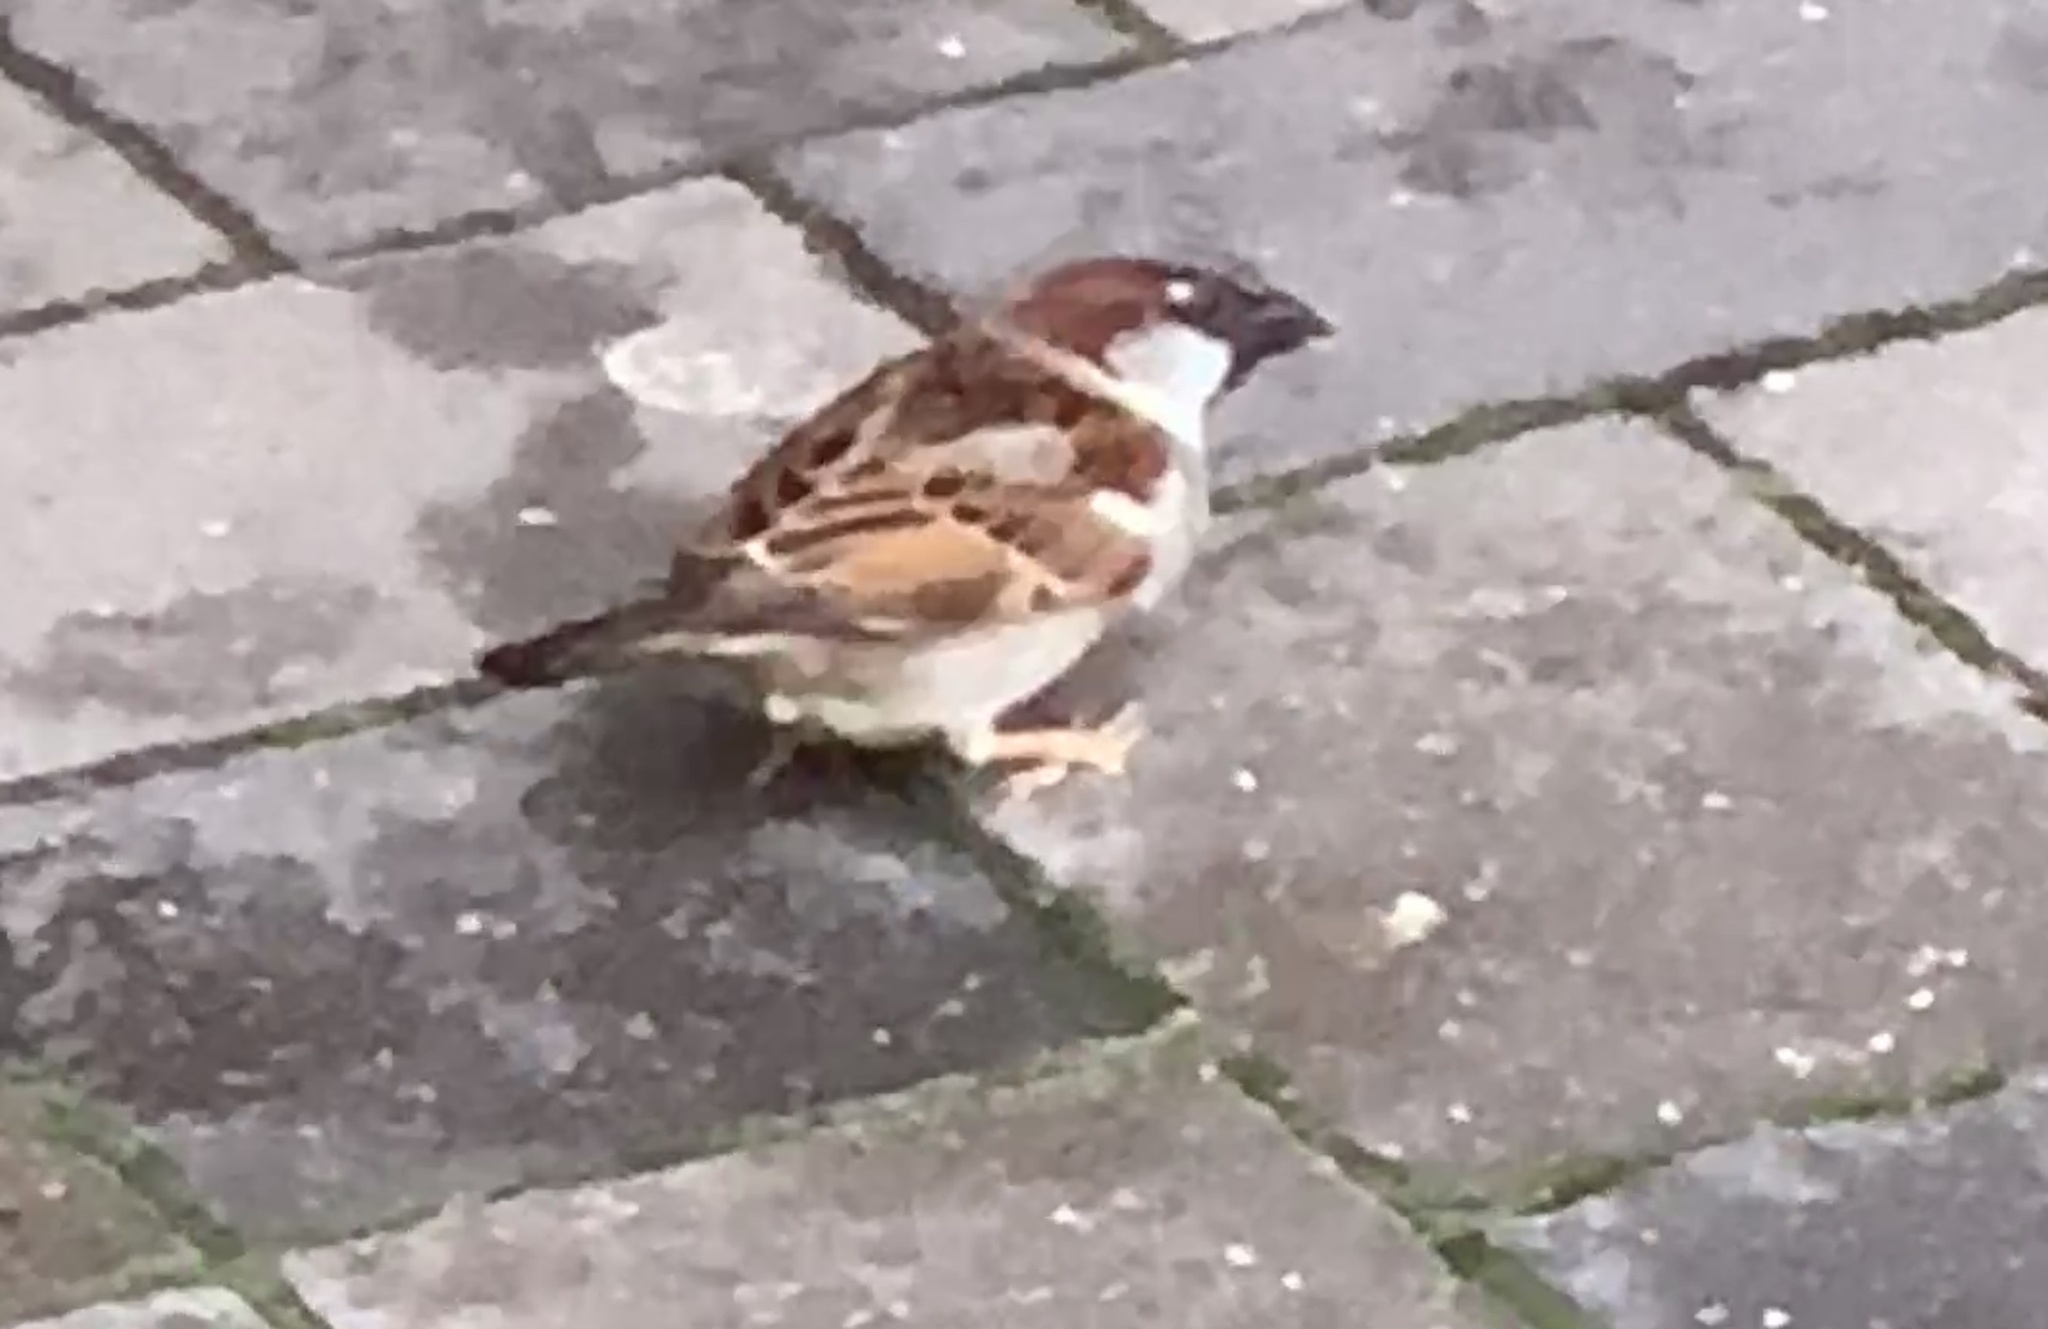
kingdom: Animalia
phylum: Chordata
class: Aves
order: Passeriformes
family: Passeridae
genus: Passer
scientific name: Passer domesticus
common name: House sparrow
